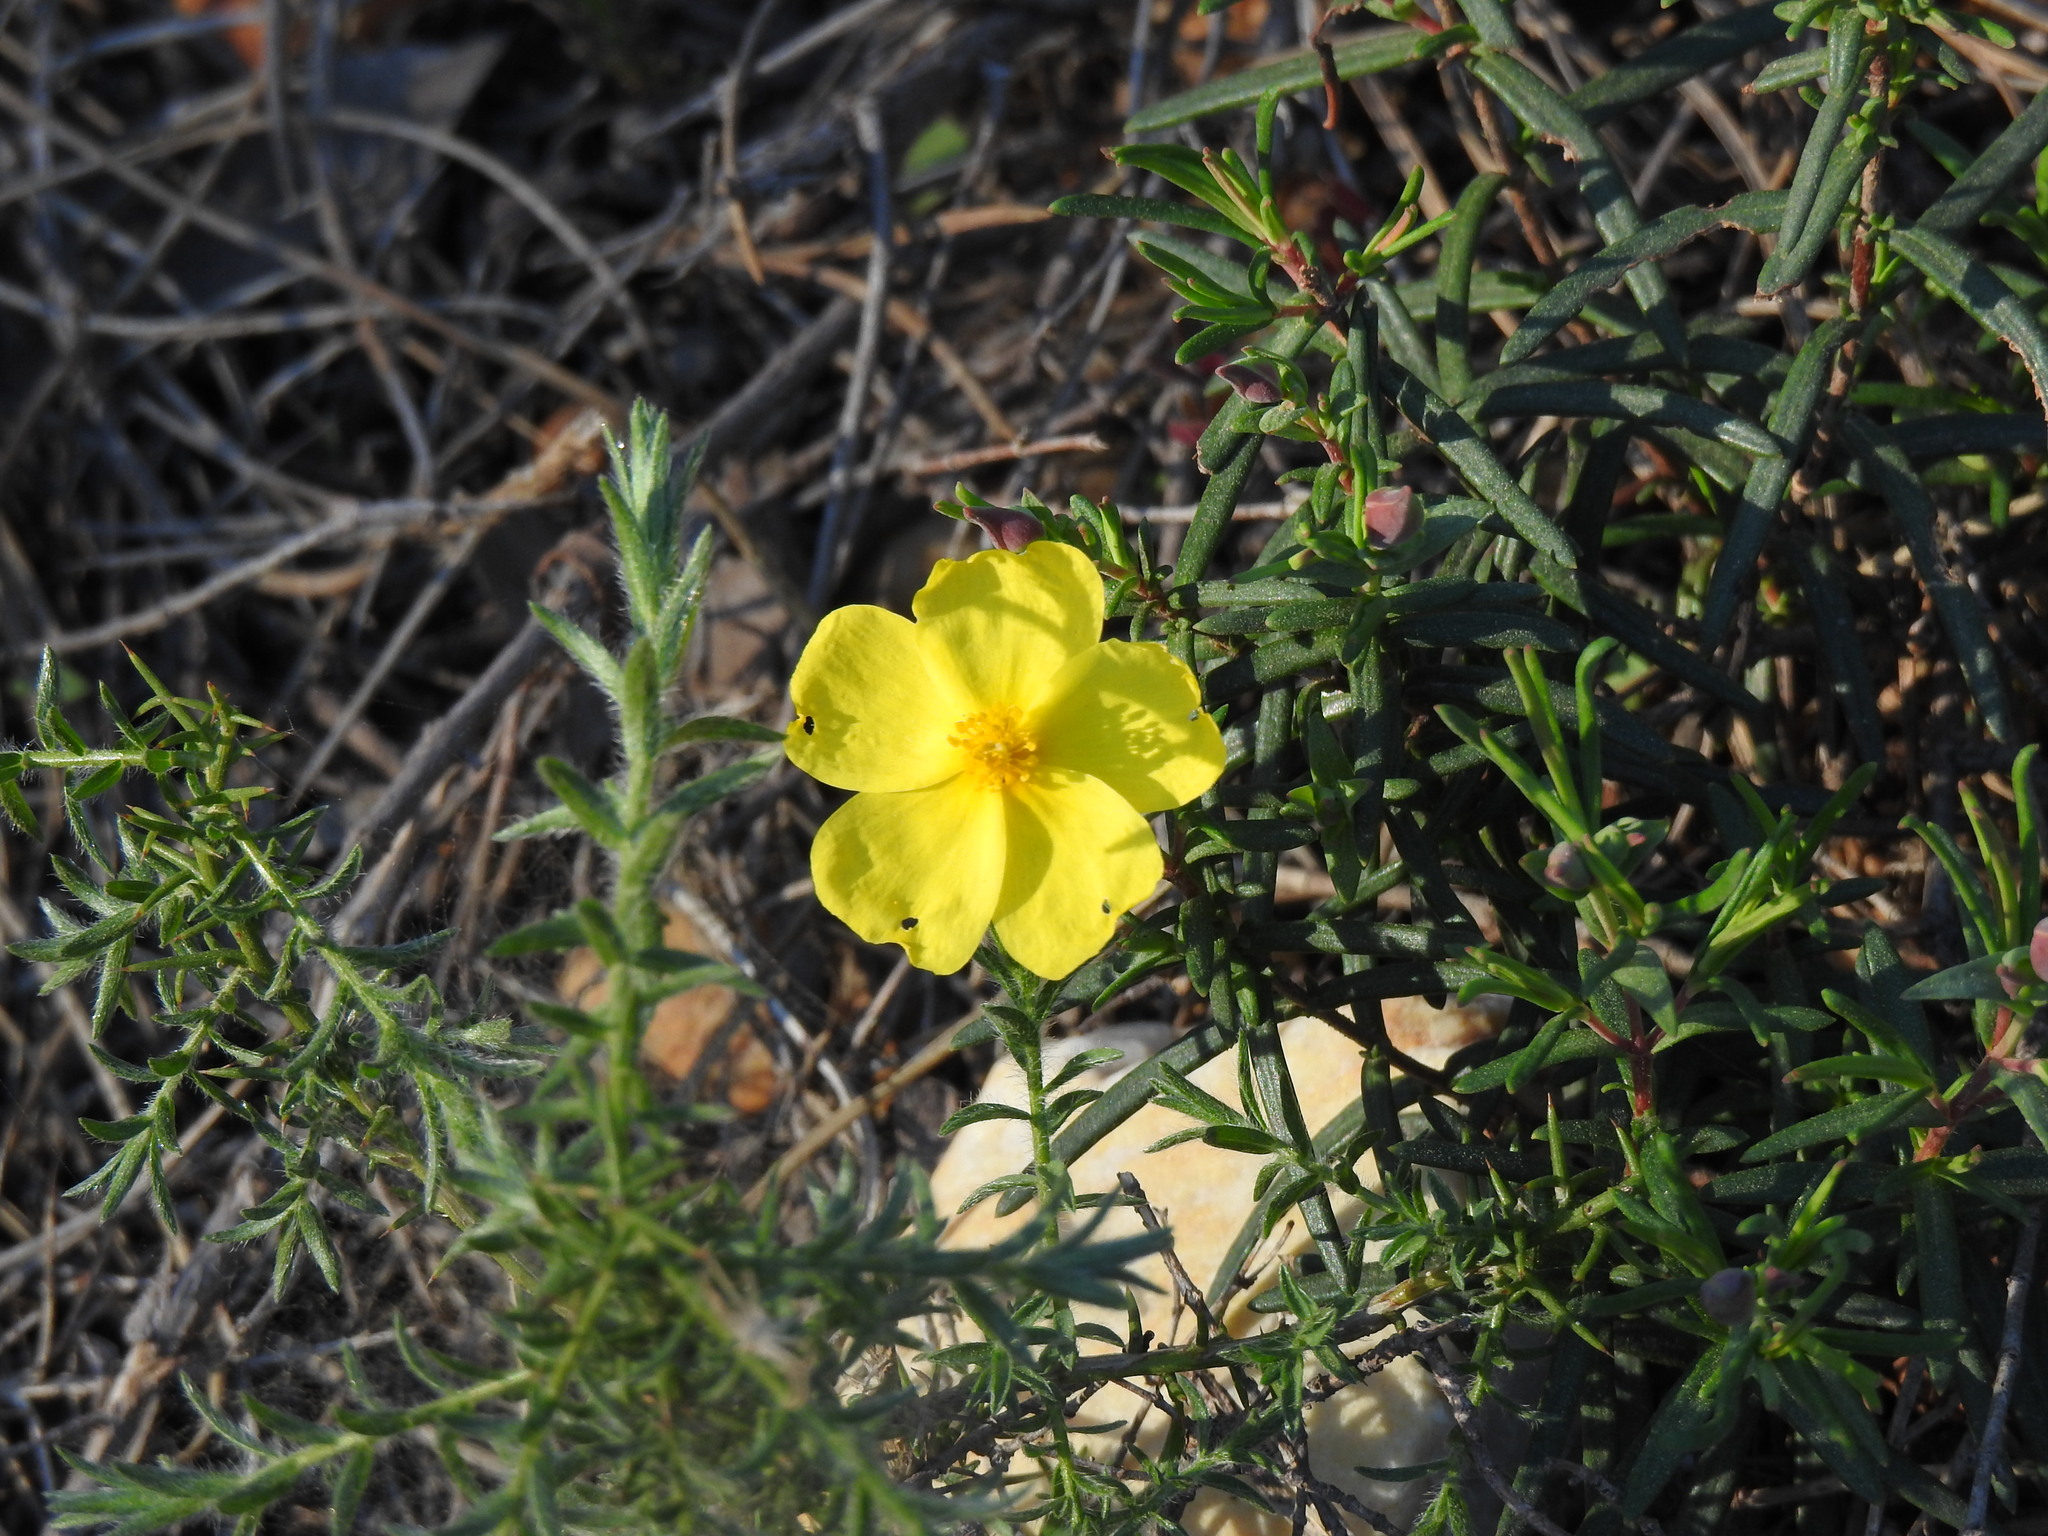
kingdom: Plantae
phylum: Tracheophyta
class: Magnoliopsida
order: Malvales
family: Cistaceae
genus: Halimium
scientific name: Halimium calycinum
